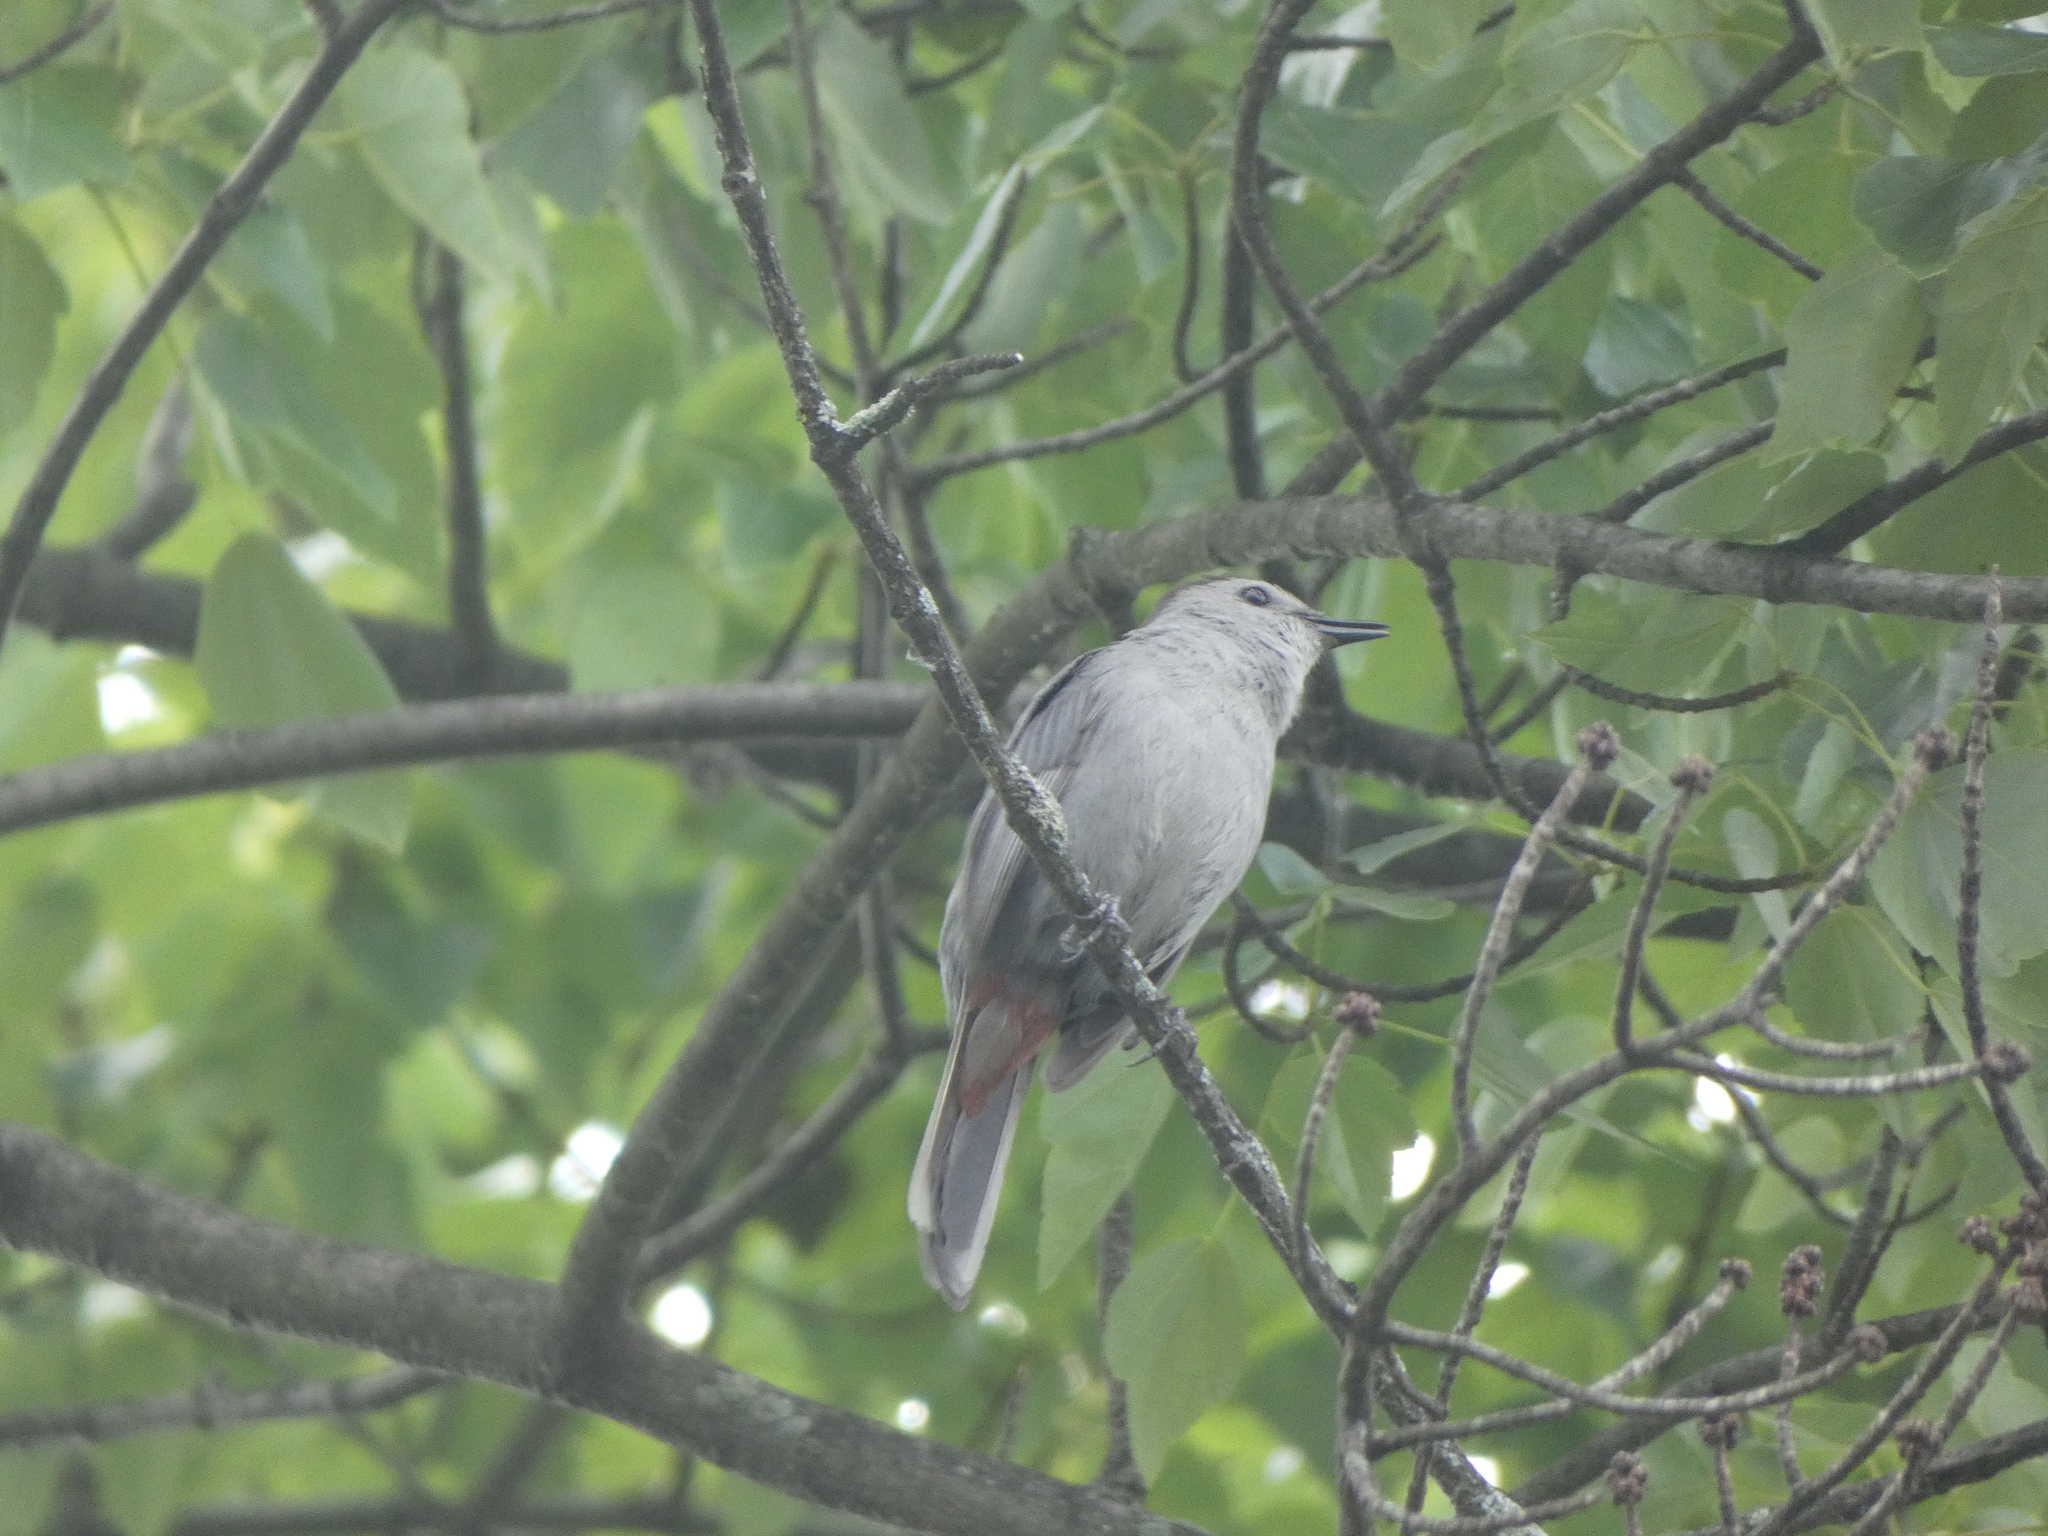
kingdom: Animalia
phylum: Chordata
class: Aves
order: Passeriformes
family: Mimidae
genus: Dumetella
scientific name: Dumetella carolinensis
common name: Gray catbird
